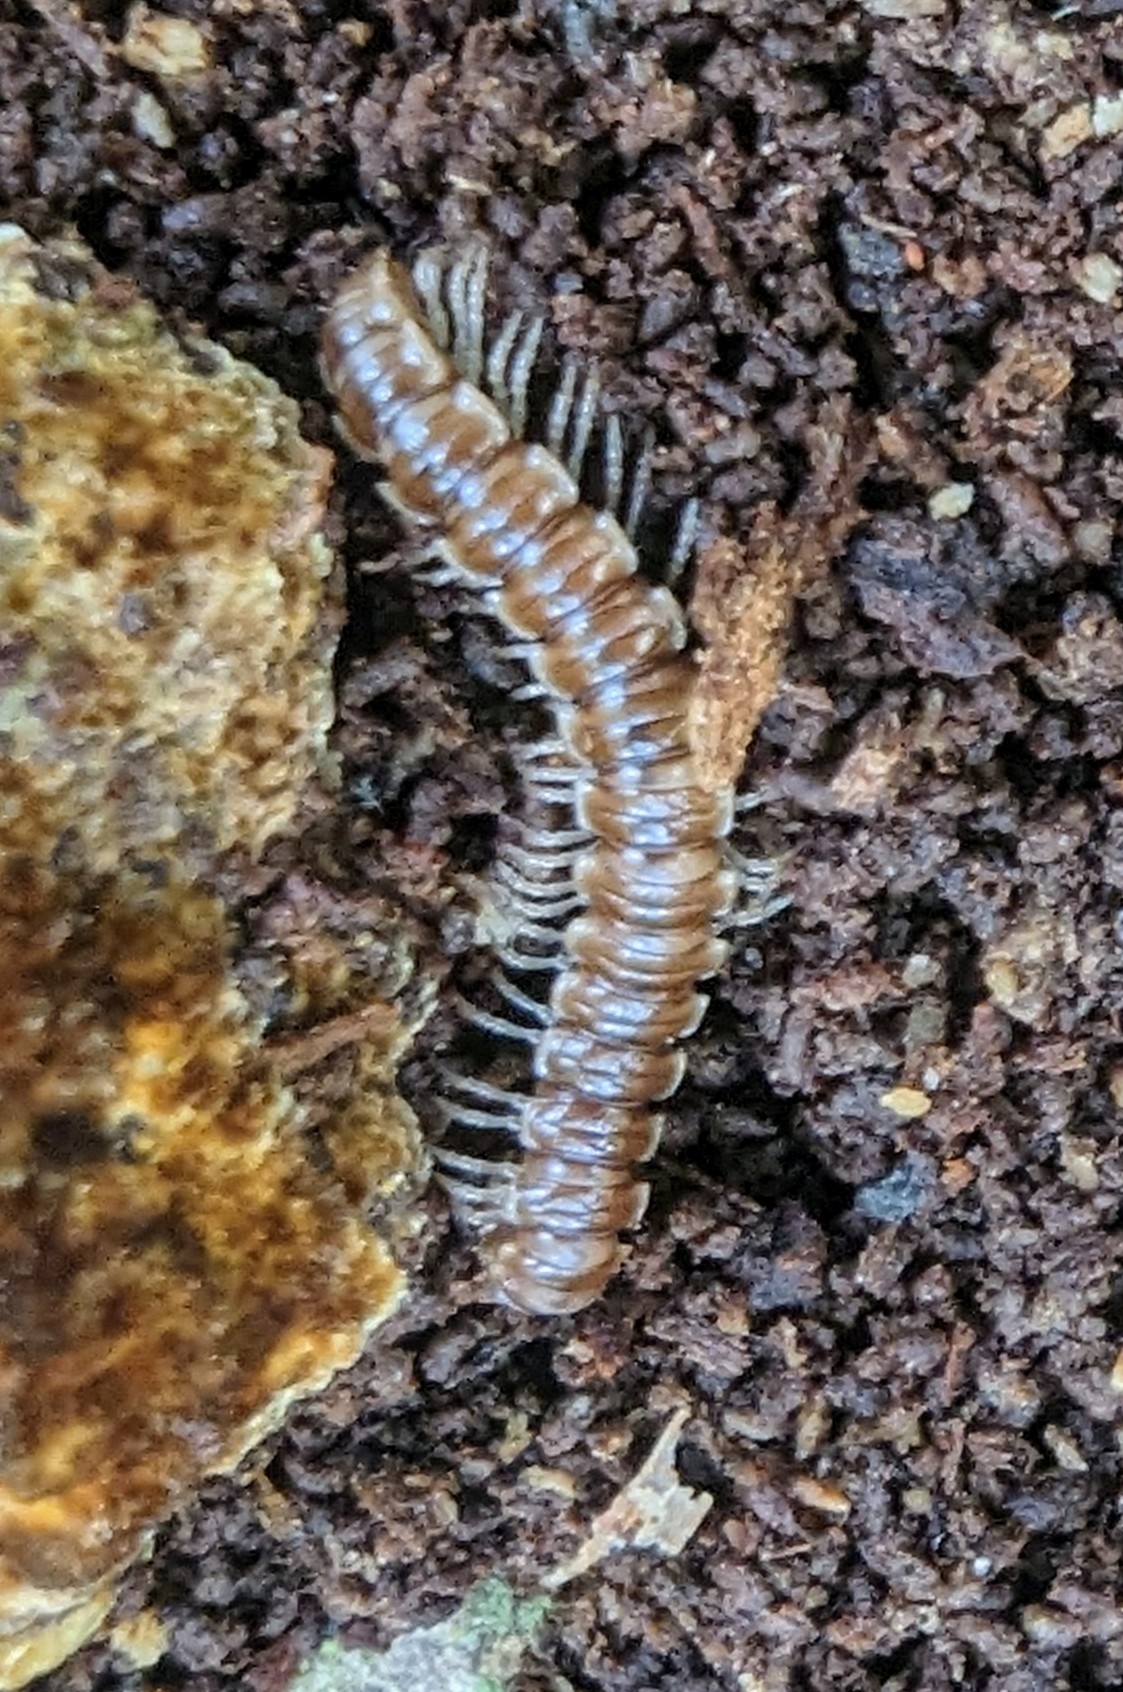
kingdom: Animalia
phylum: Arthropoda
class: Diplopoda
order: Polydesmida
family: Paradoxosomatidae
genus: Oxidus
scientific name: Oxidus gracilis
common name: Greenhouse millipede
